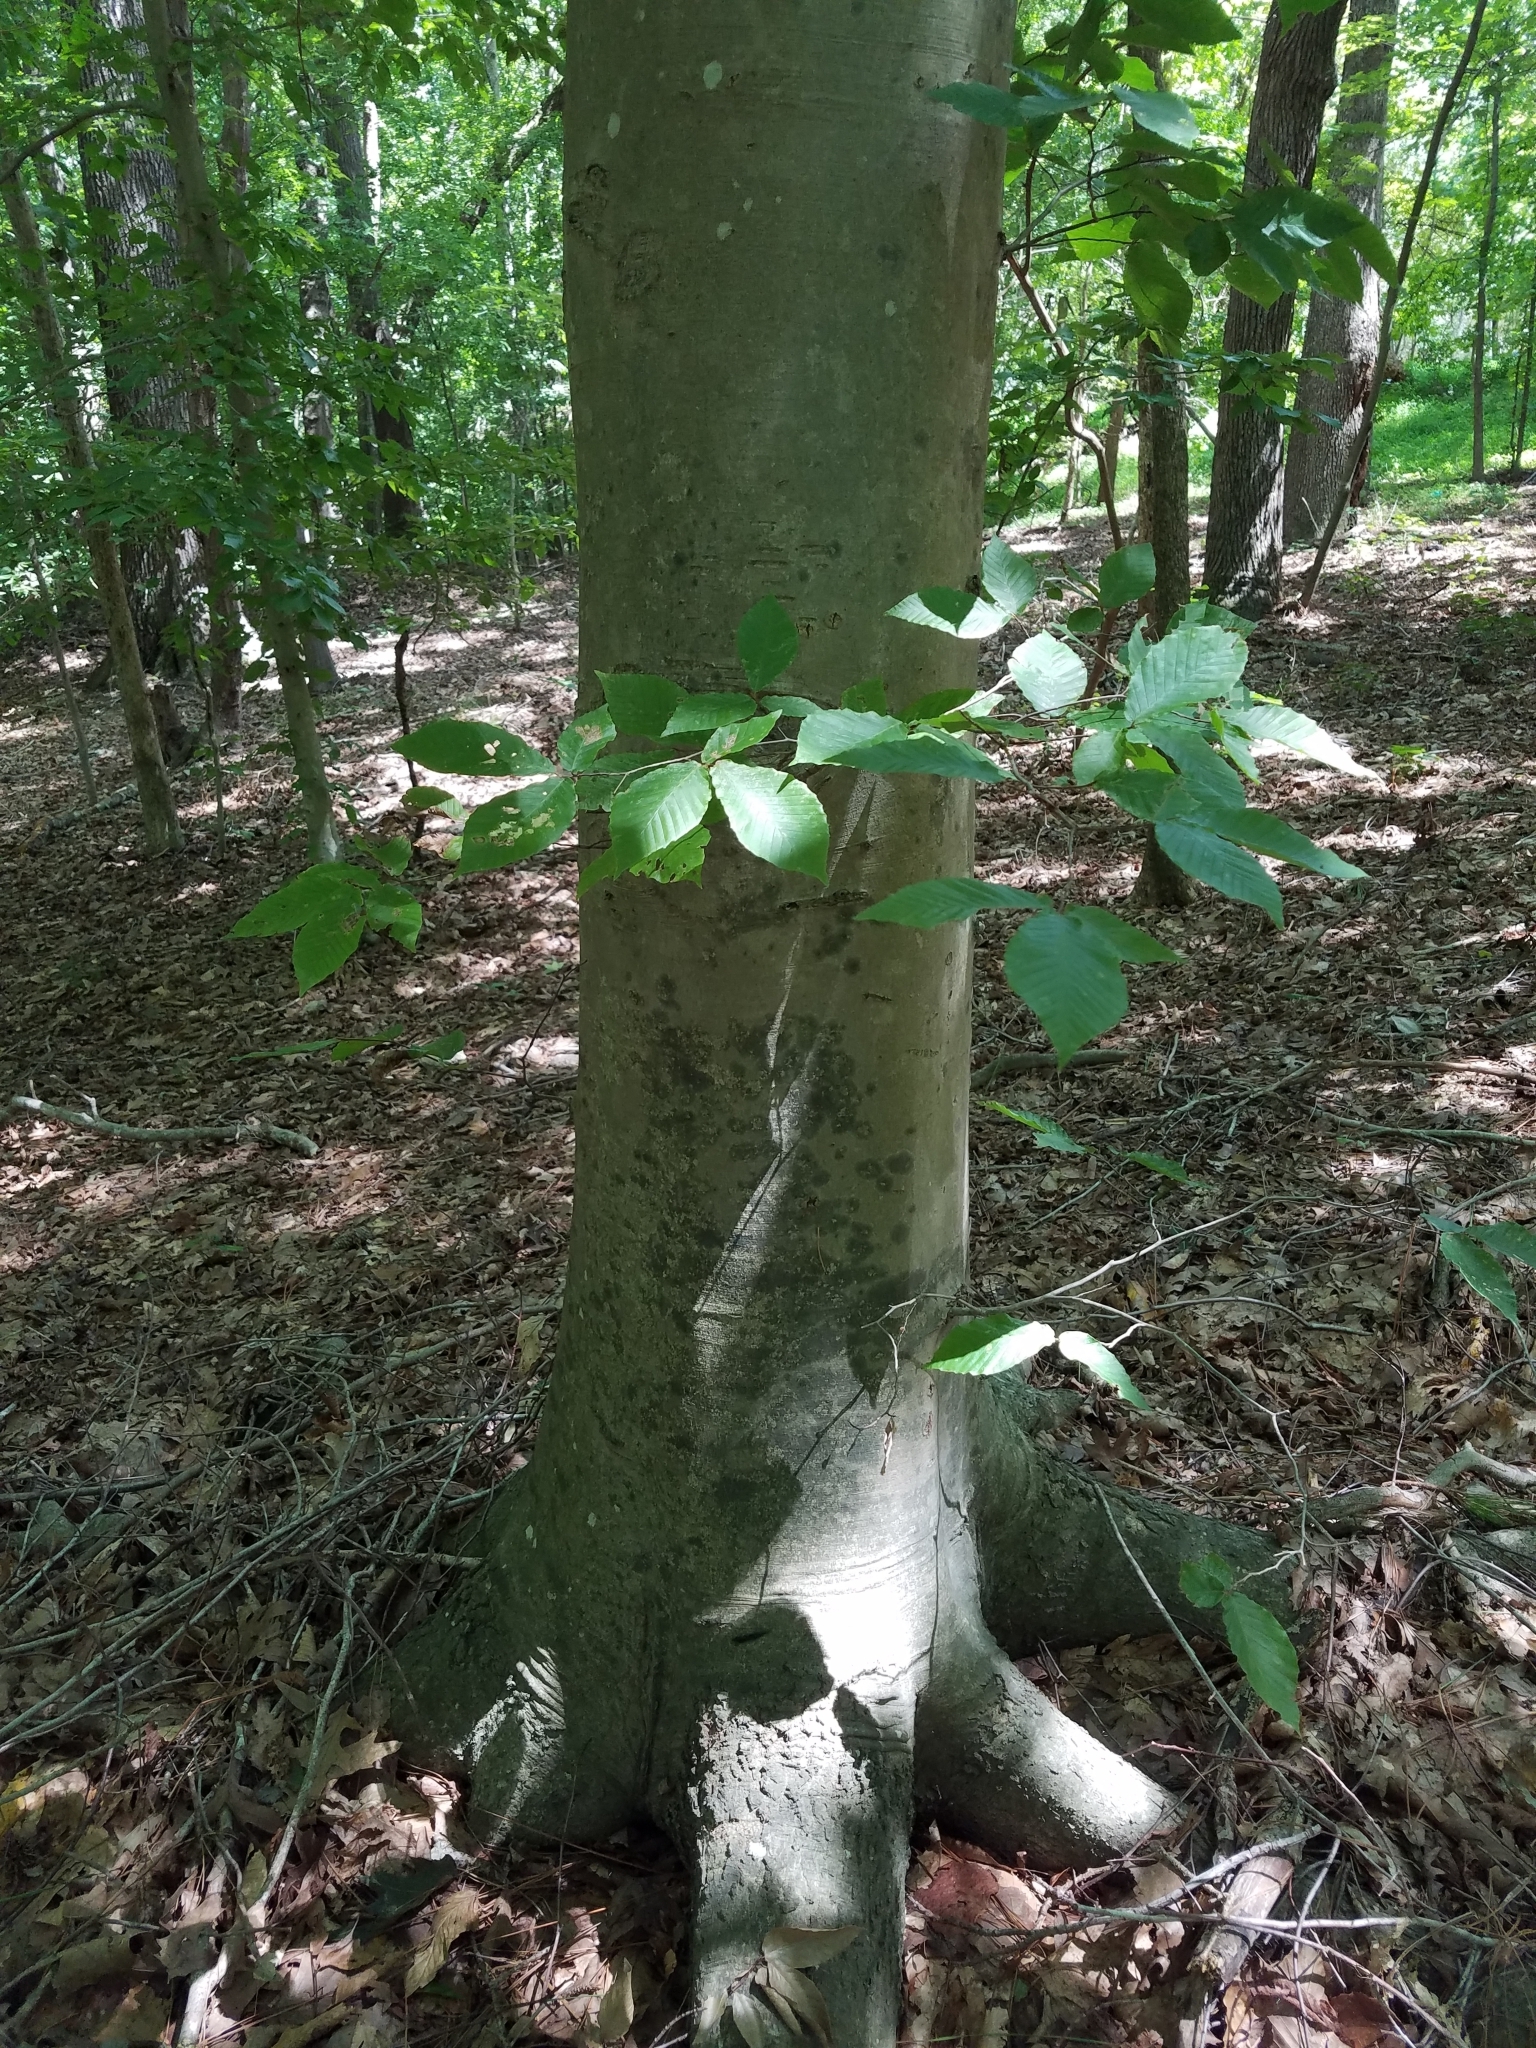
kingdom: Plantae
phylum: Tracheophyta
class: Magnoliopsida
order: Fagales
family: Fagaceae
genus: Fagus
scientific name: Fagus grandifolia
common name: American beech
